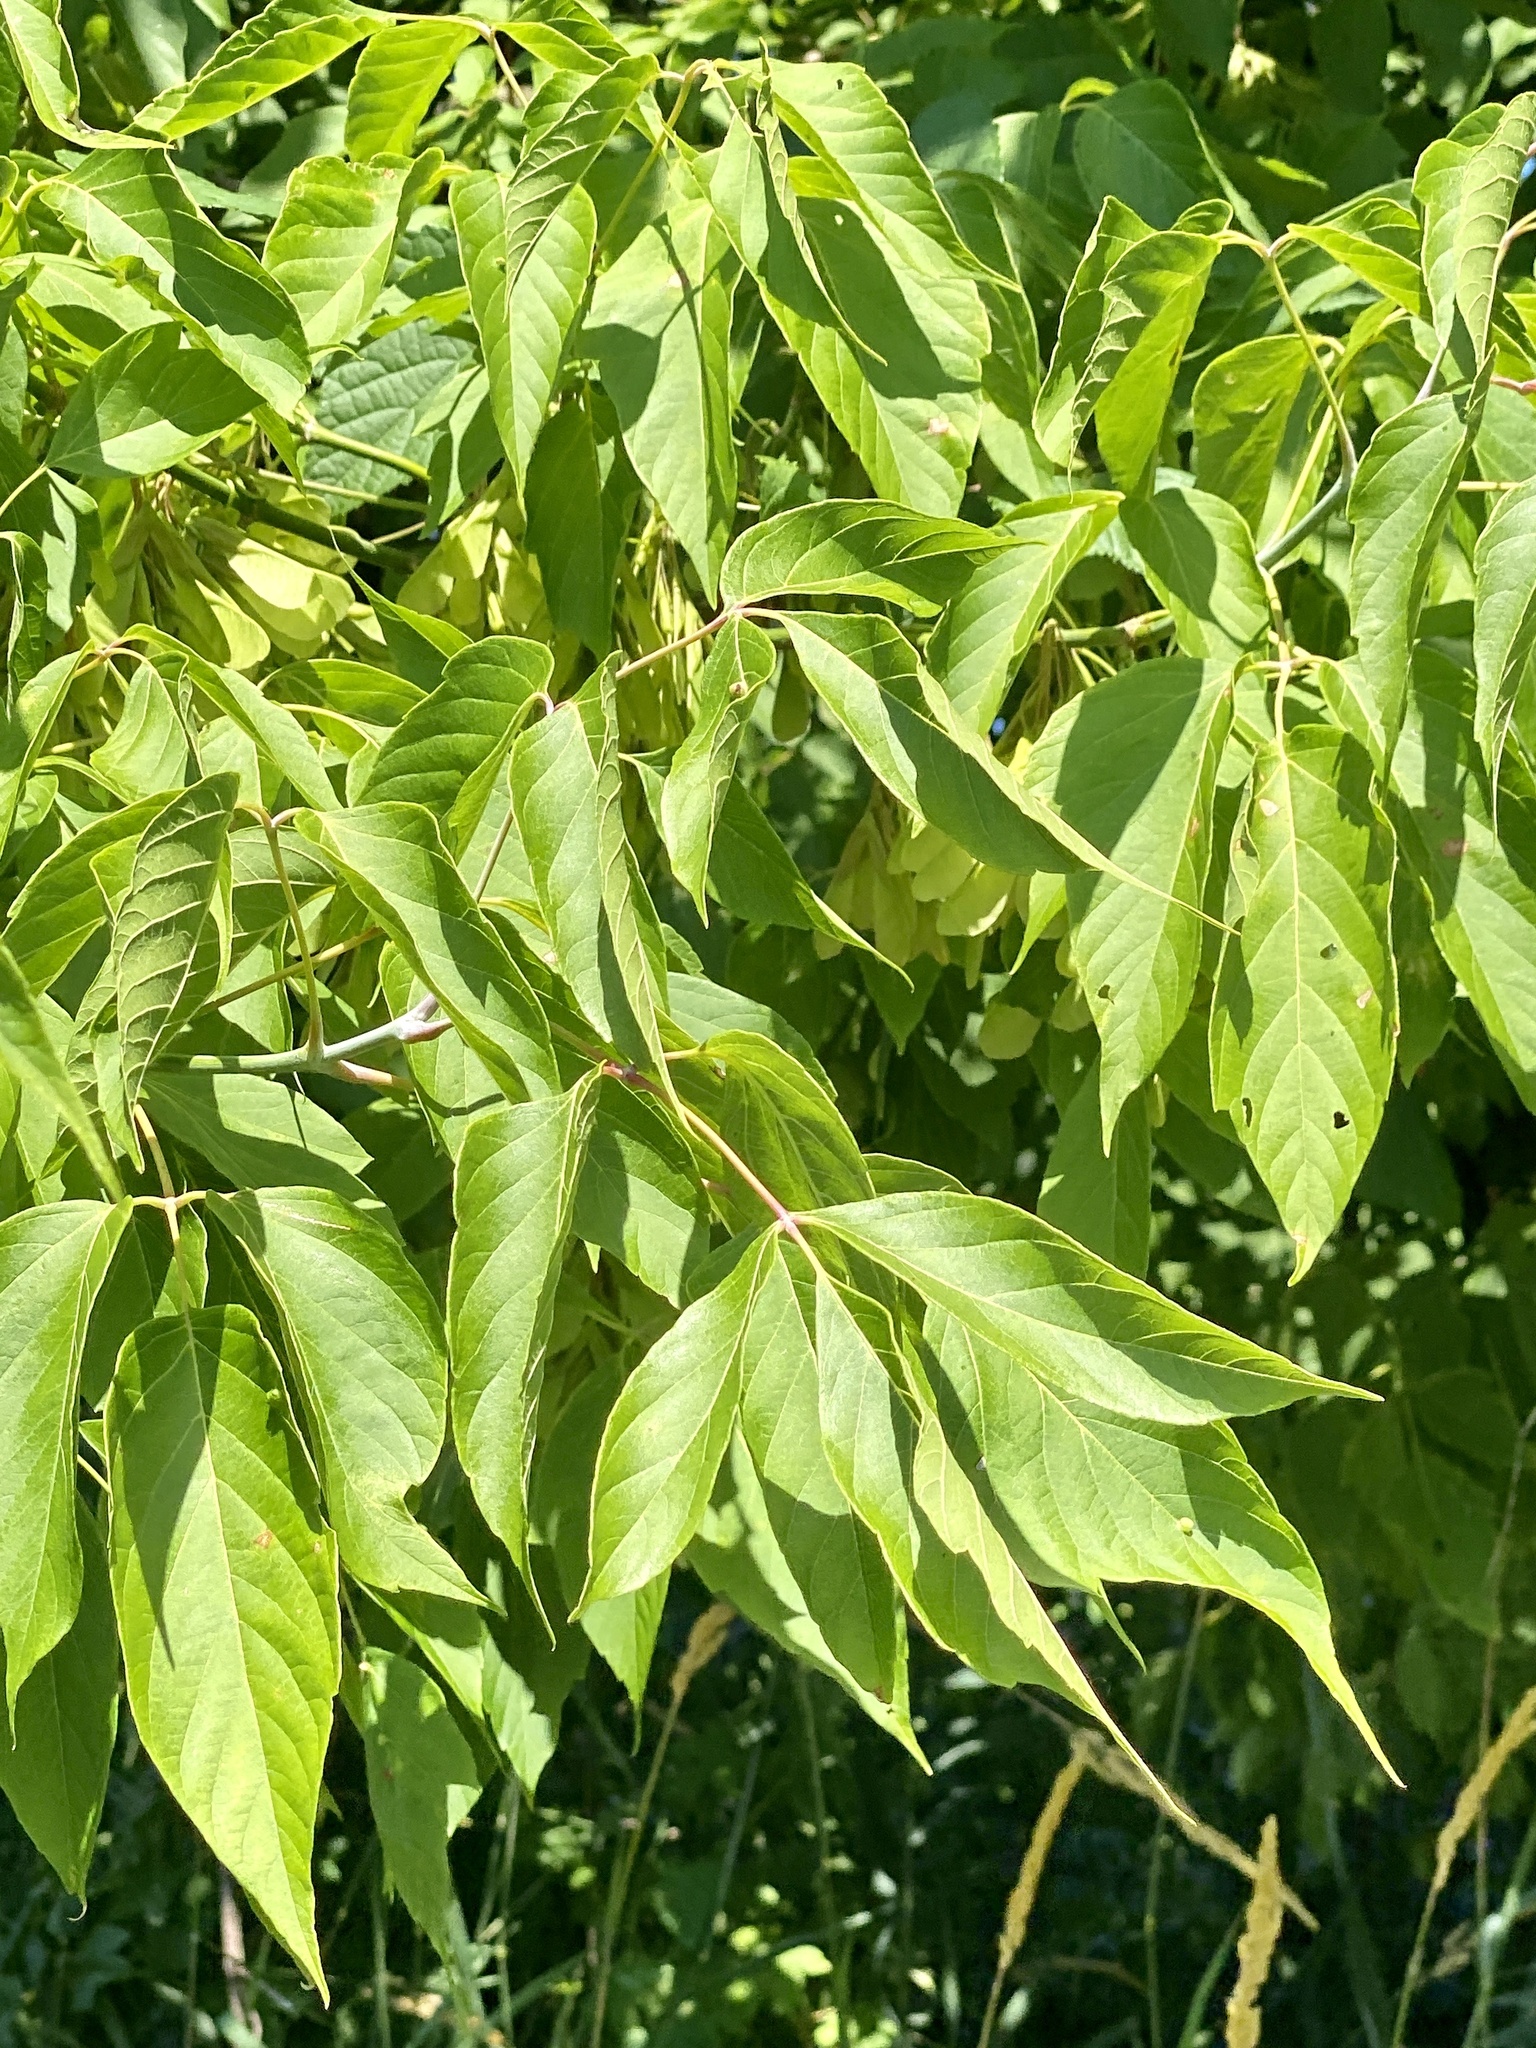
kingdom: Plantae
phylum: Tracheophyta
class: Magnoliopsida
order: Sapindales
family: Sapindaceae
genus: Acer
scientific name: Acer negundo
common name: Ashleaf maple
